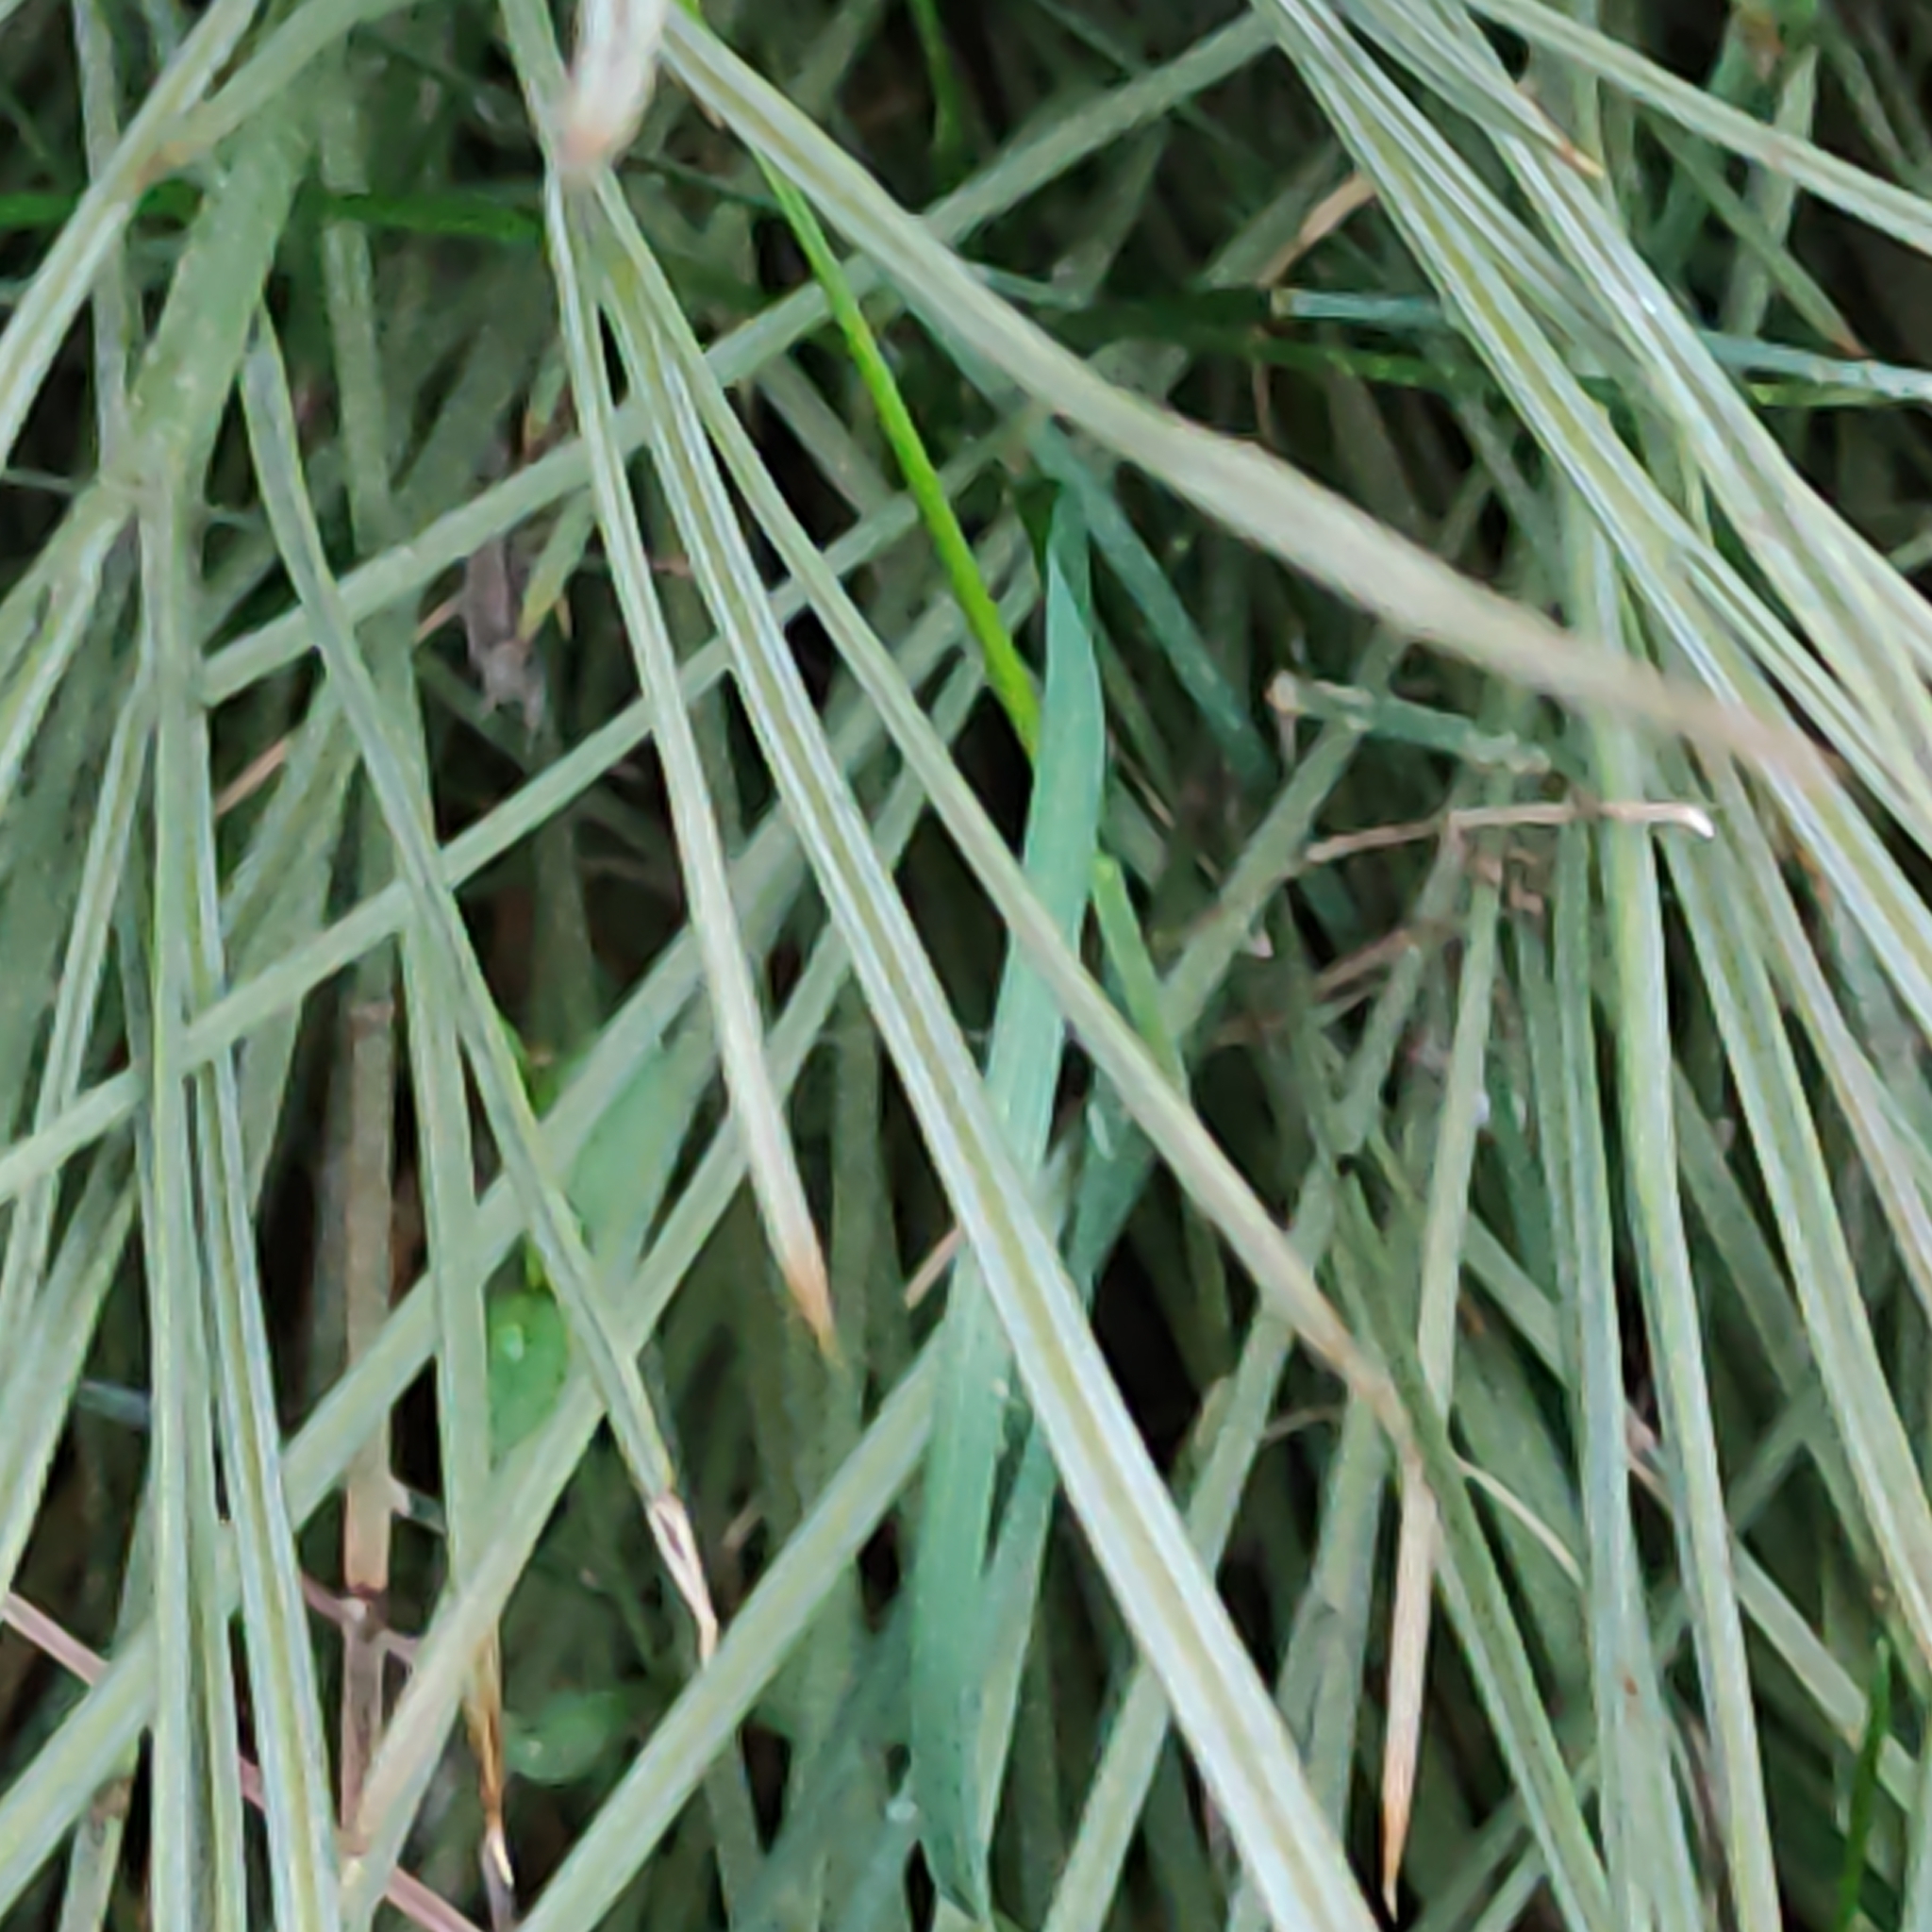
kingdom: Plantae
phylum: Tracheophyta
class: Magnoliopsida
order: Apiales
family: Apiaceae
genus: Aciphylla
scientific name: Aciphylla subflabellata
